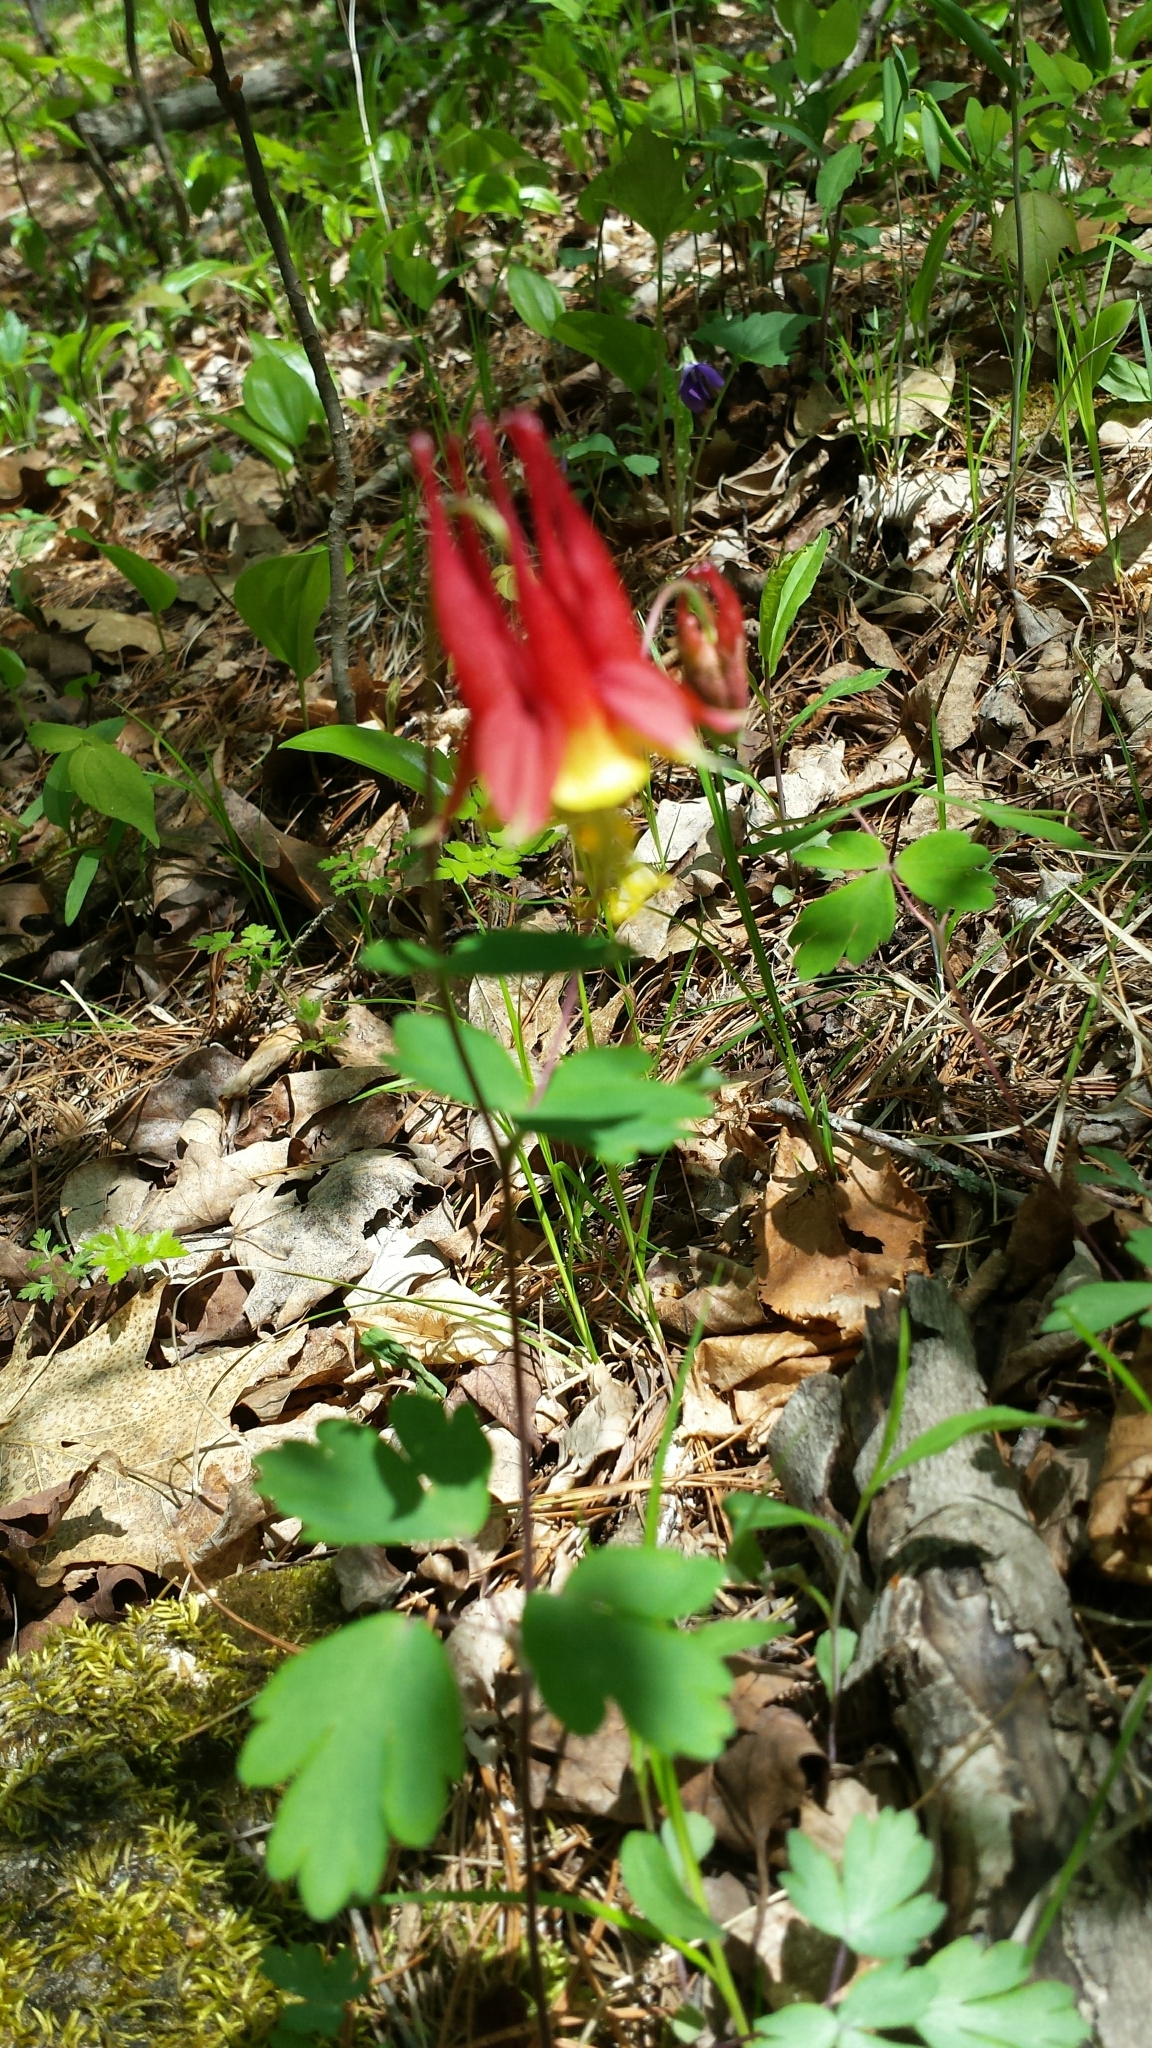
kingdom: Plantae
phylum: Tracheophyta
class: Magnoliopsida
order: Ranunculales
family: Ranunculaceae
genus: Aquilegia
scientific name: Aquilegia canadensis
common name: American columbine
